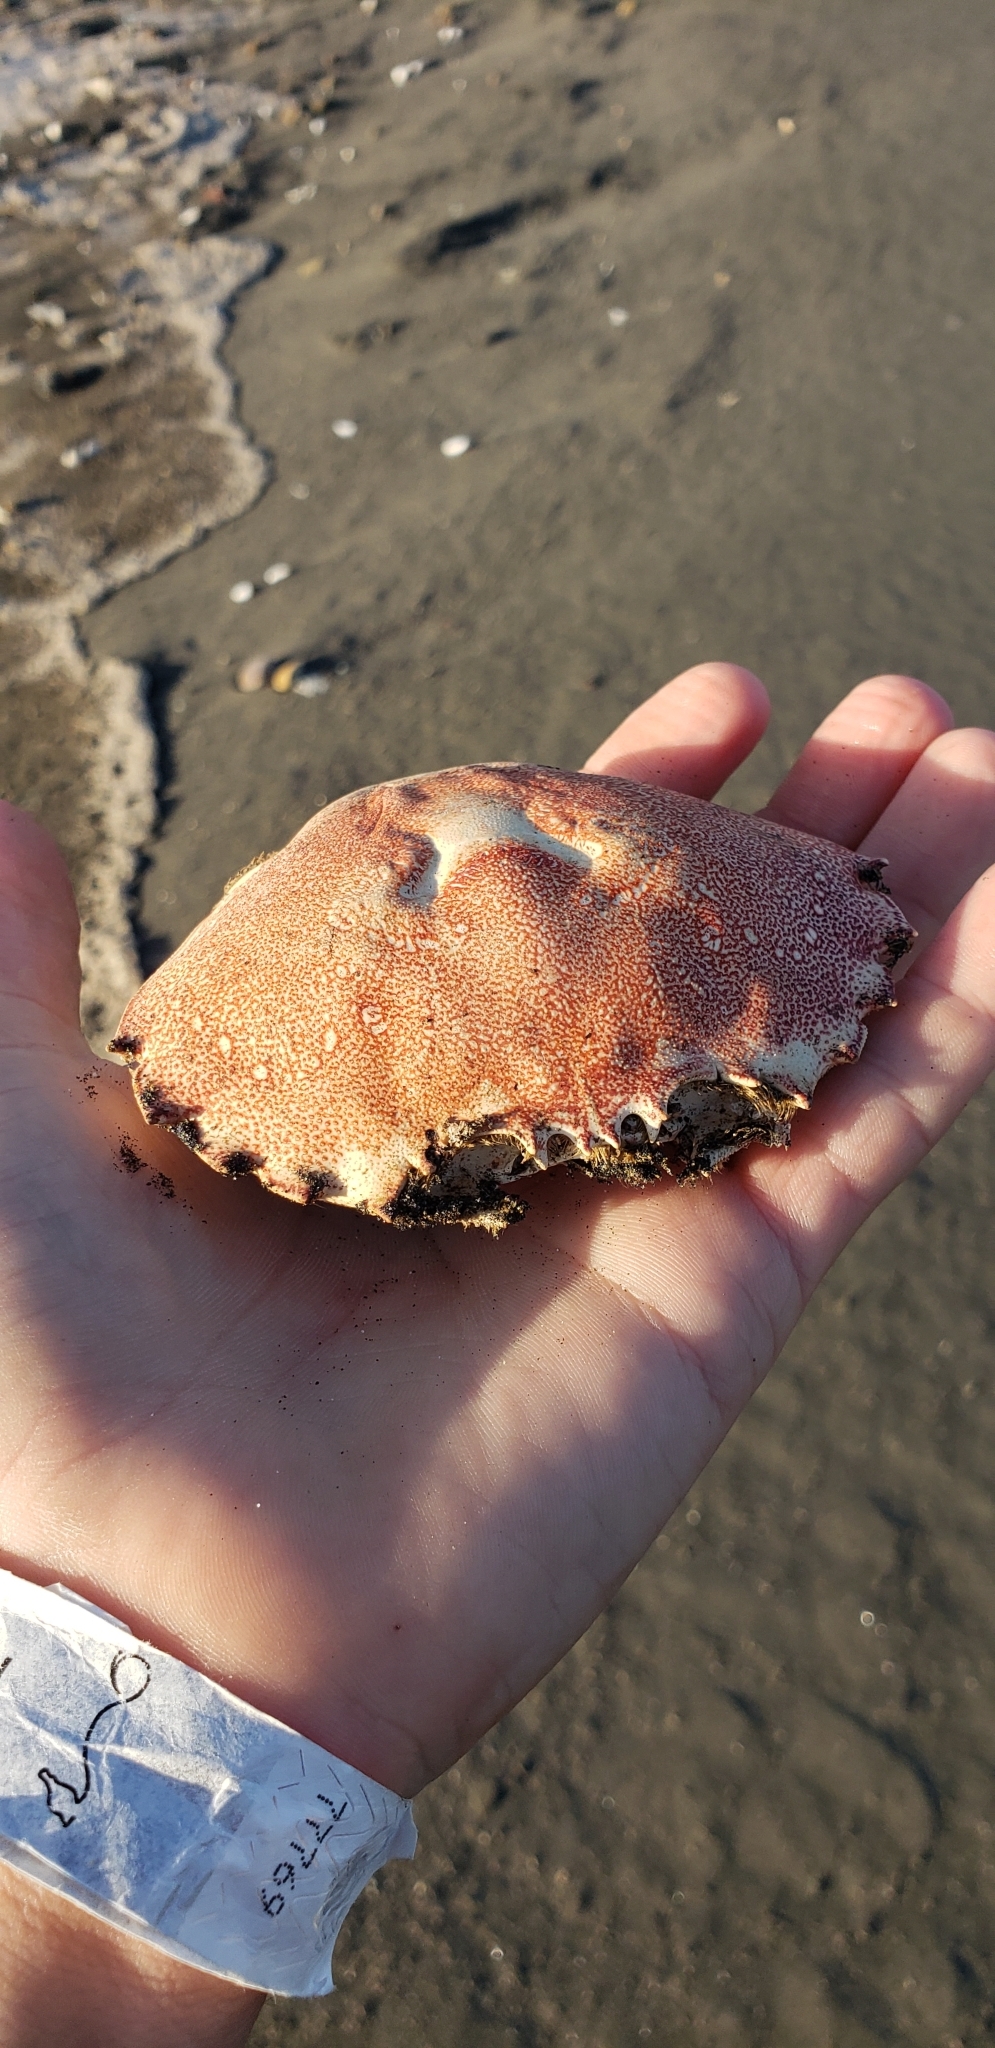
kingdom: Animalia
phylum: Arthropoda
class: Malacostraca
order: Decapoda
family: Ovalipidae
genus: Ovalipes
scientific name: Ovalipes trimaculatus
